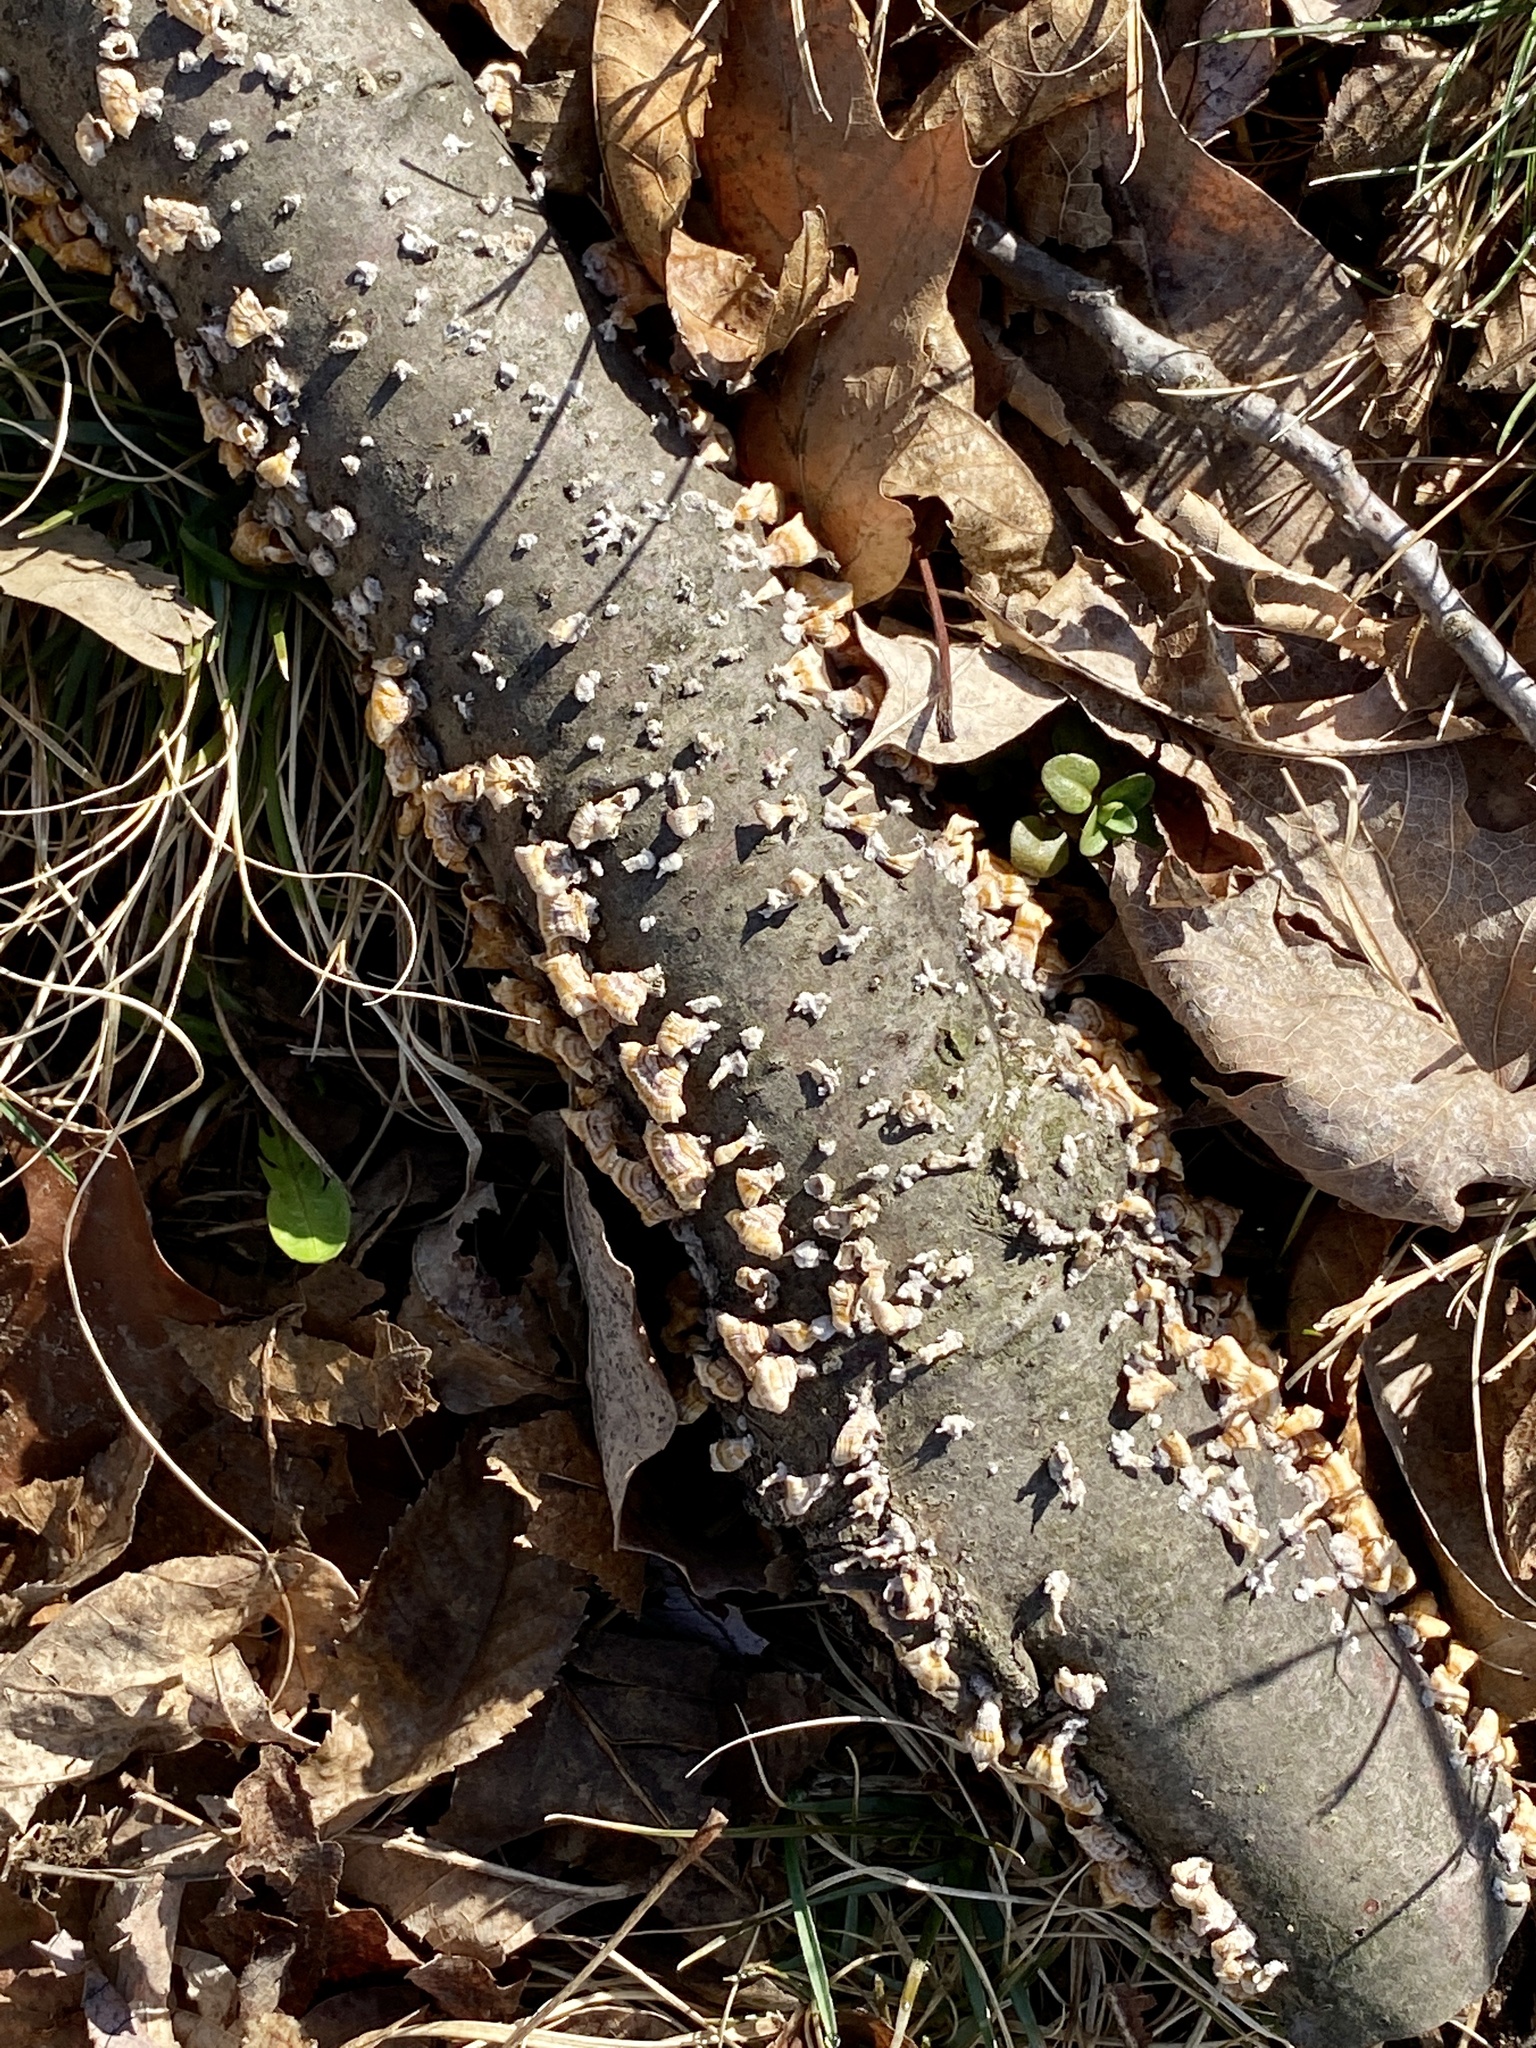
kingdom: Fungi
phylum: Basidiomycota
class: Agaricomycetes
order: Russulales
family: Stereaceae
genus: Stereum
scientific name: Stereum complicatum
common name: Crowded parchment
